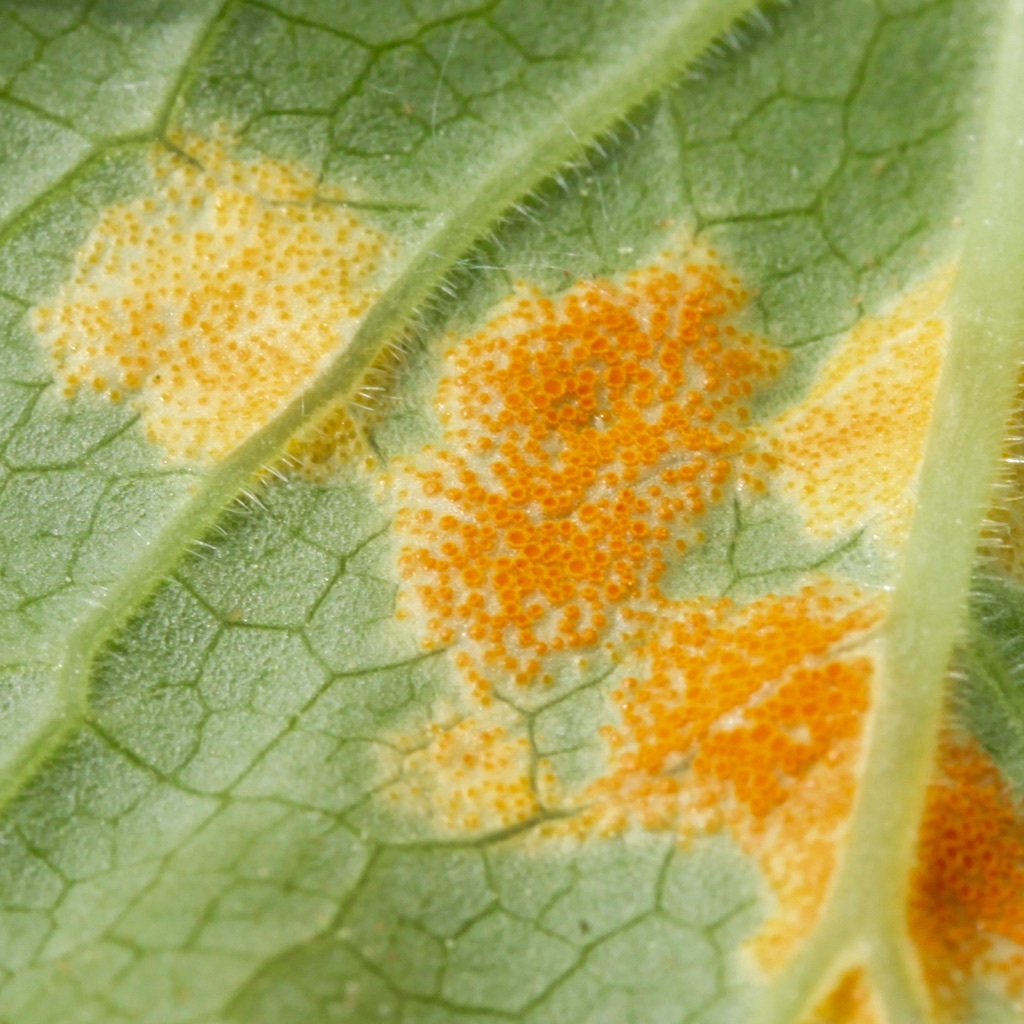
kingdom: Fungi
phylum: Basidiomycota
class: Pucciniomycetes
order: Pucciniales
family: Pucciniaceae
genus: Puccinia
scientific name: Puccinia podophylli
